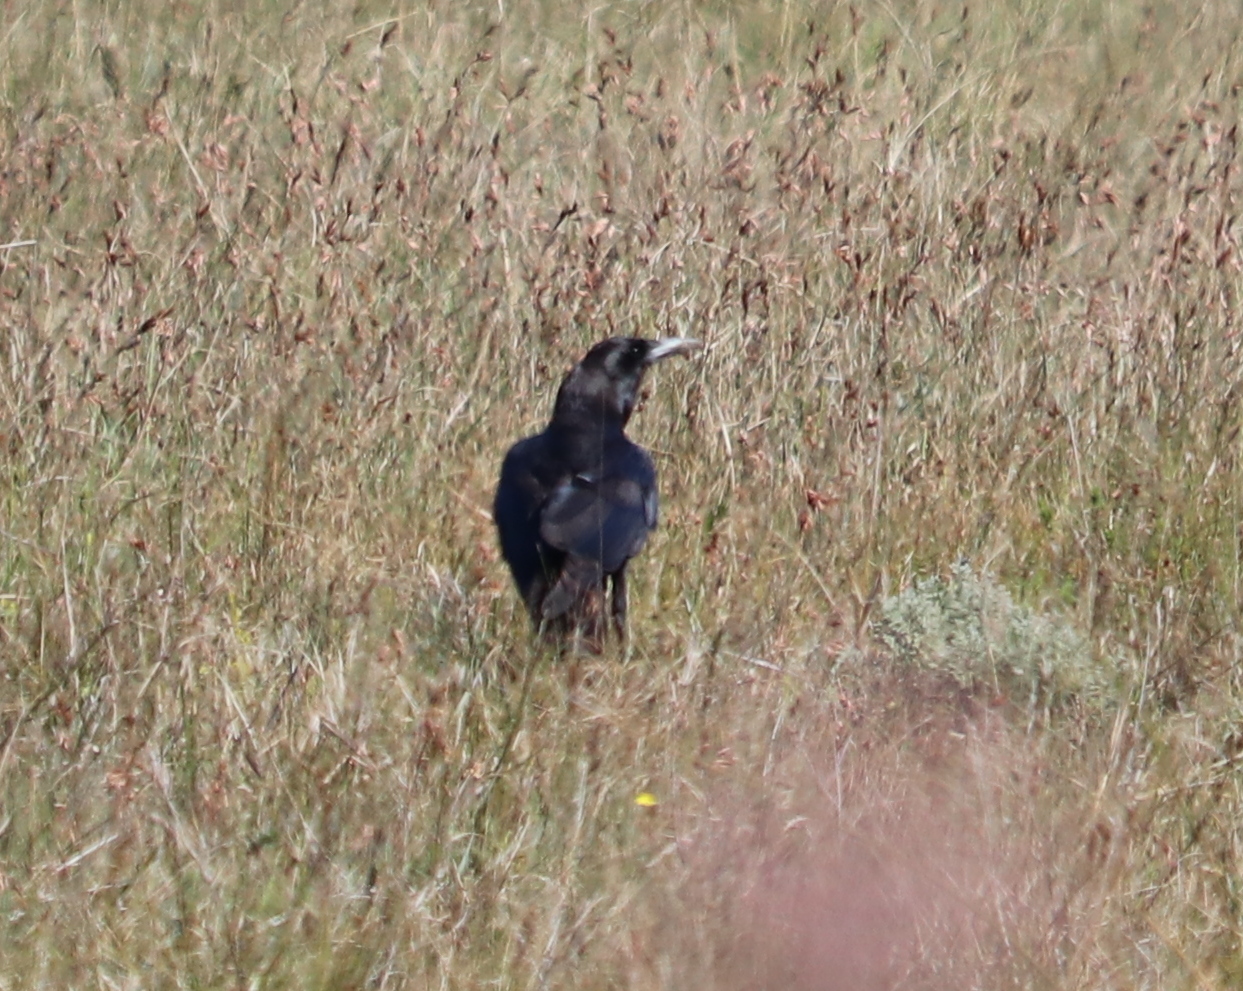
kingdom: Animalia
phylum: Chordata
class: Aves
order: Passeriformes
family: Corvidae
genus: Corvus
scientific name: Corvus capensis
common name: Cape crow
